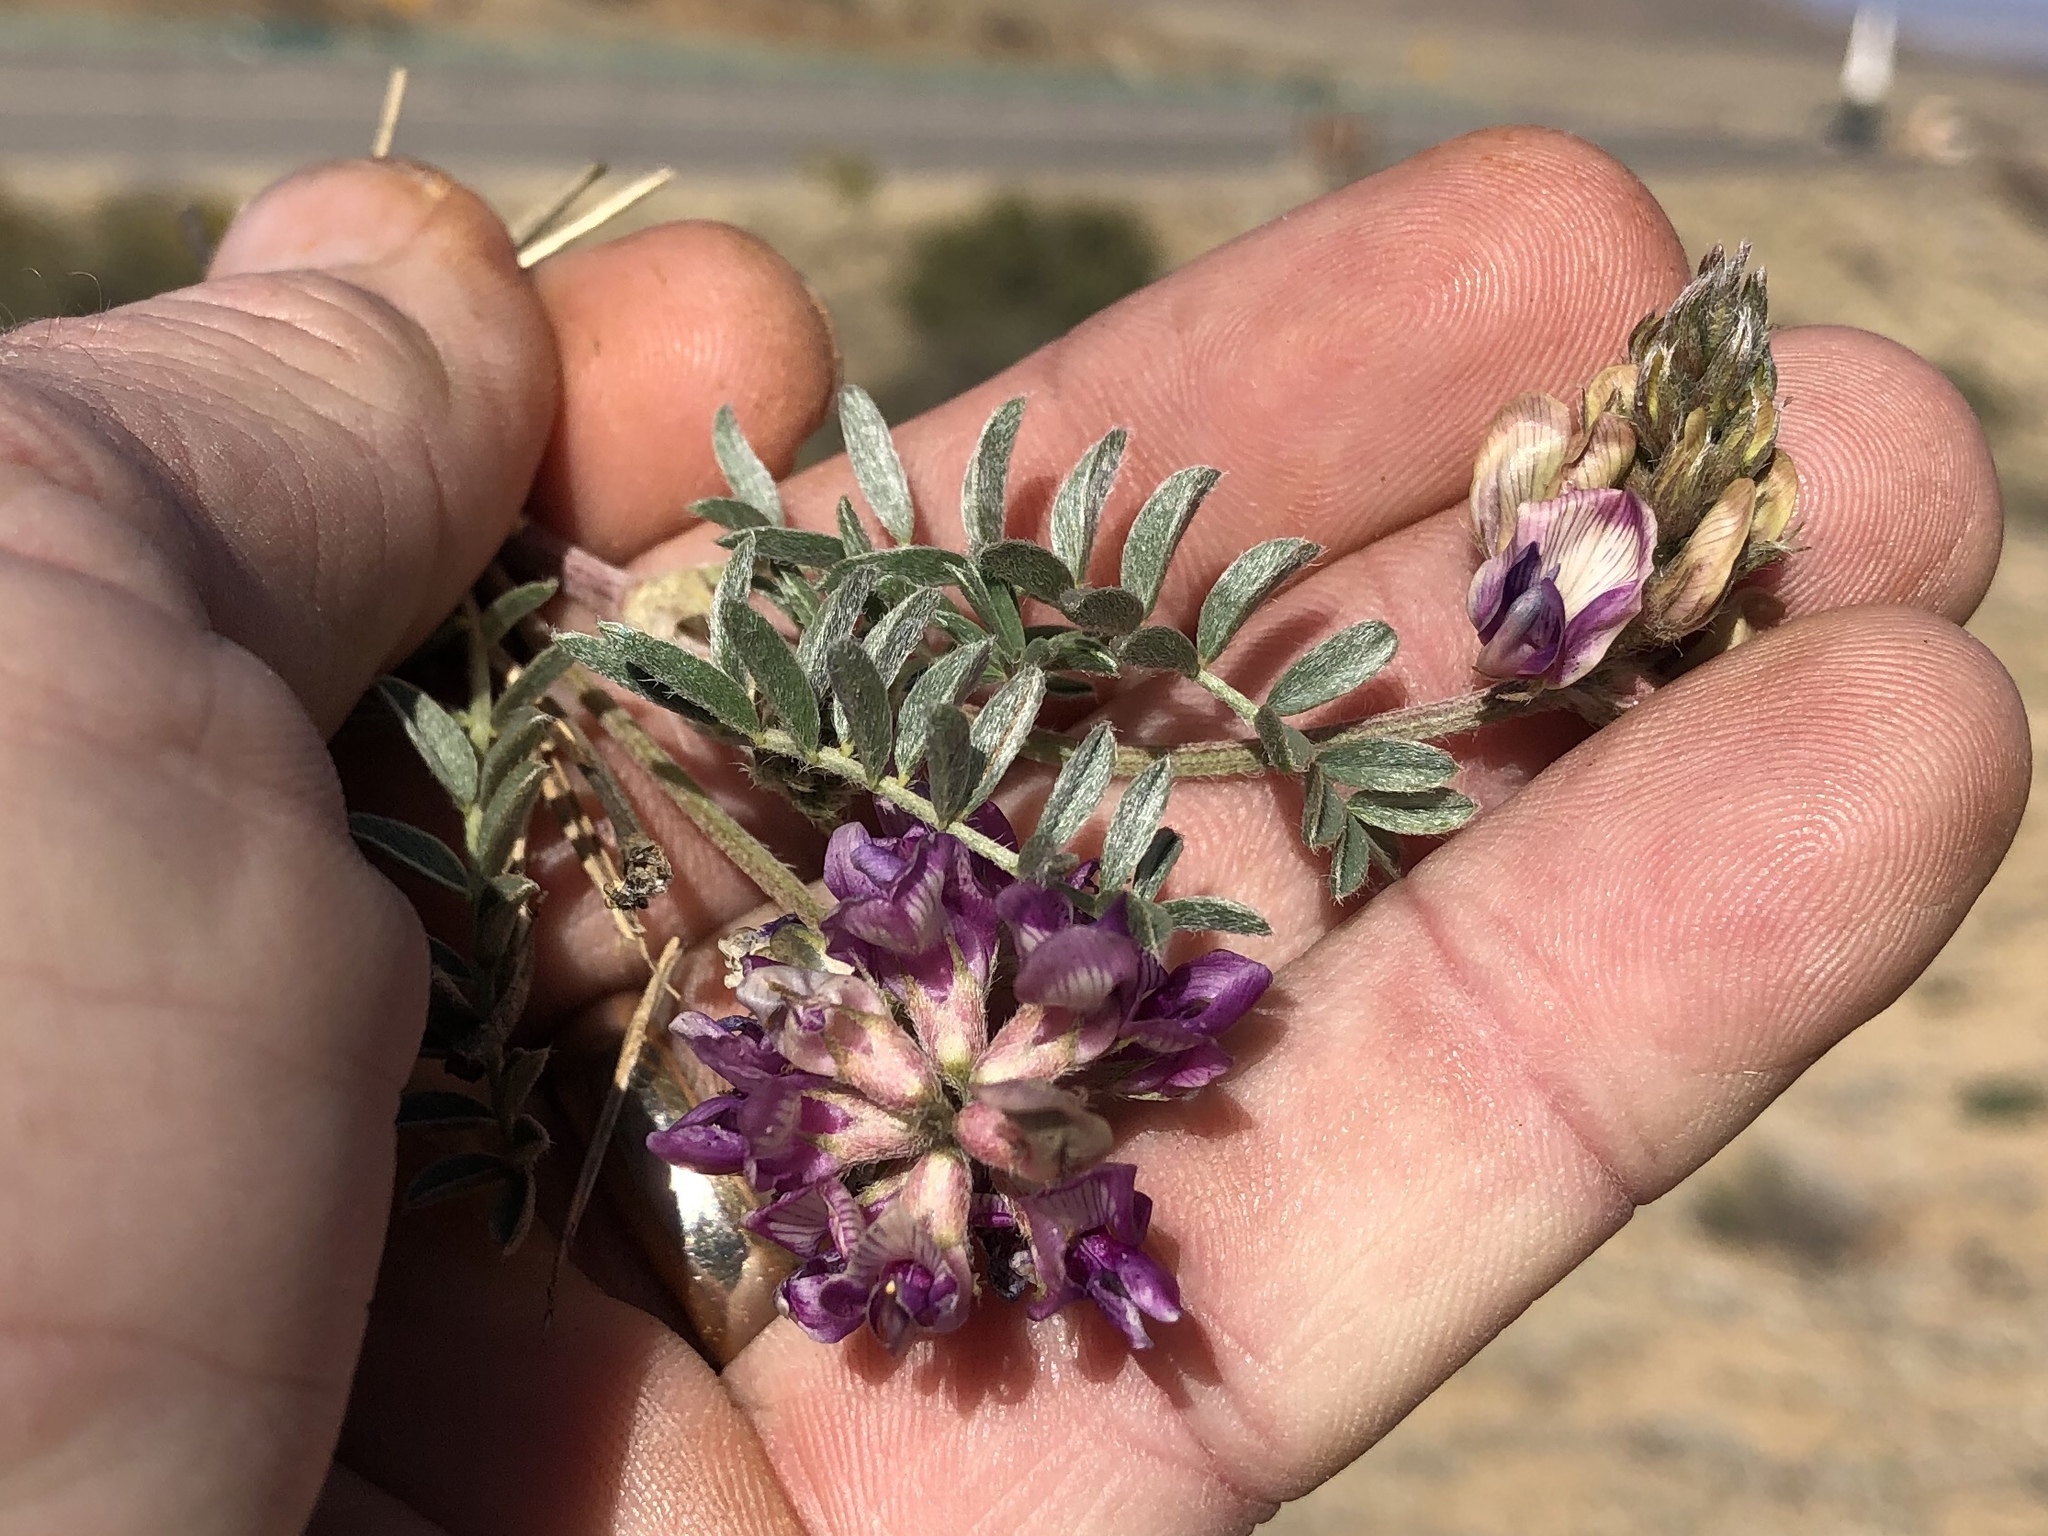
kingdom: Plantae
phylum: Tracheophyta
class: Magnoliopsida
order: Fabales
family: Fabaceae
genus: Astragalus
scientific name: Astragalus humistratus
